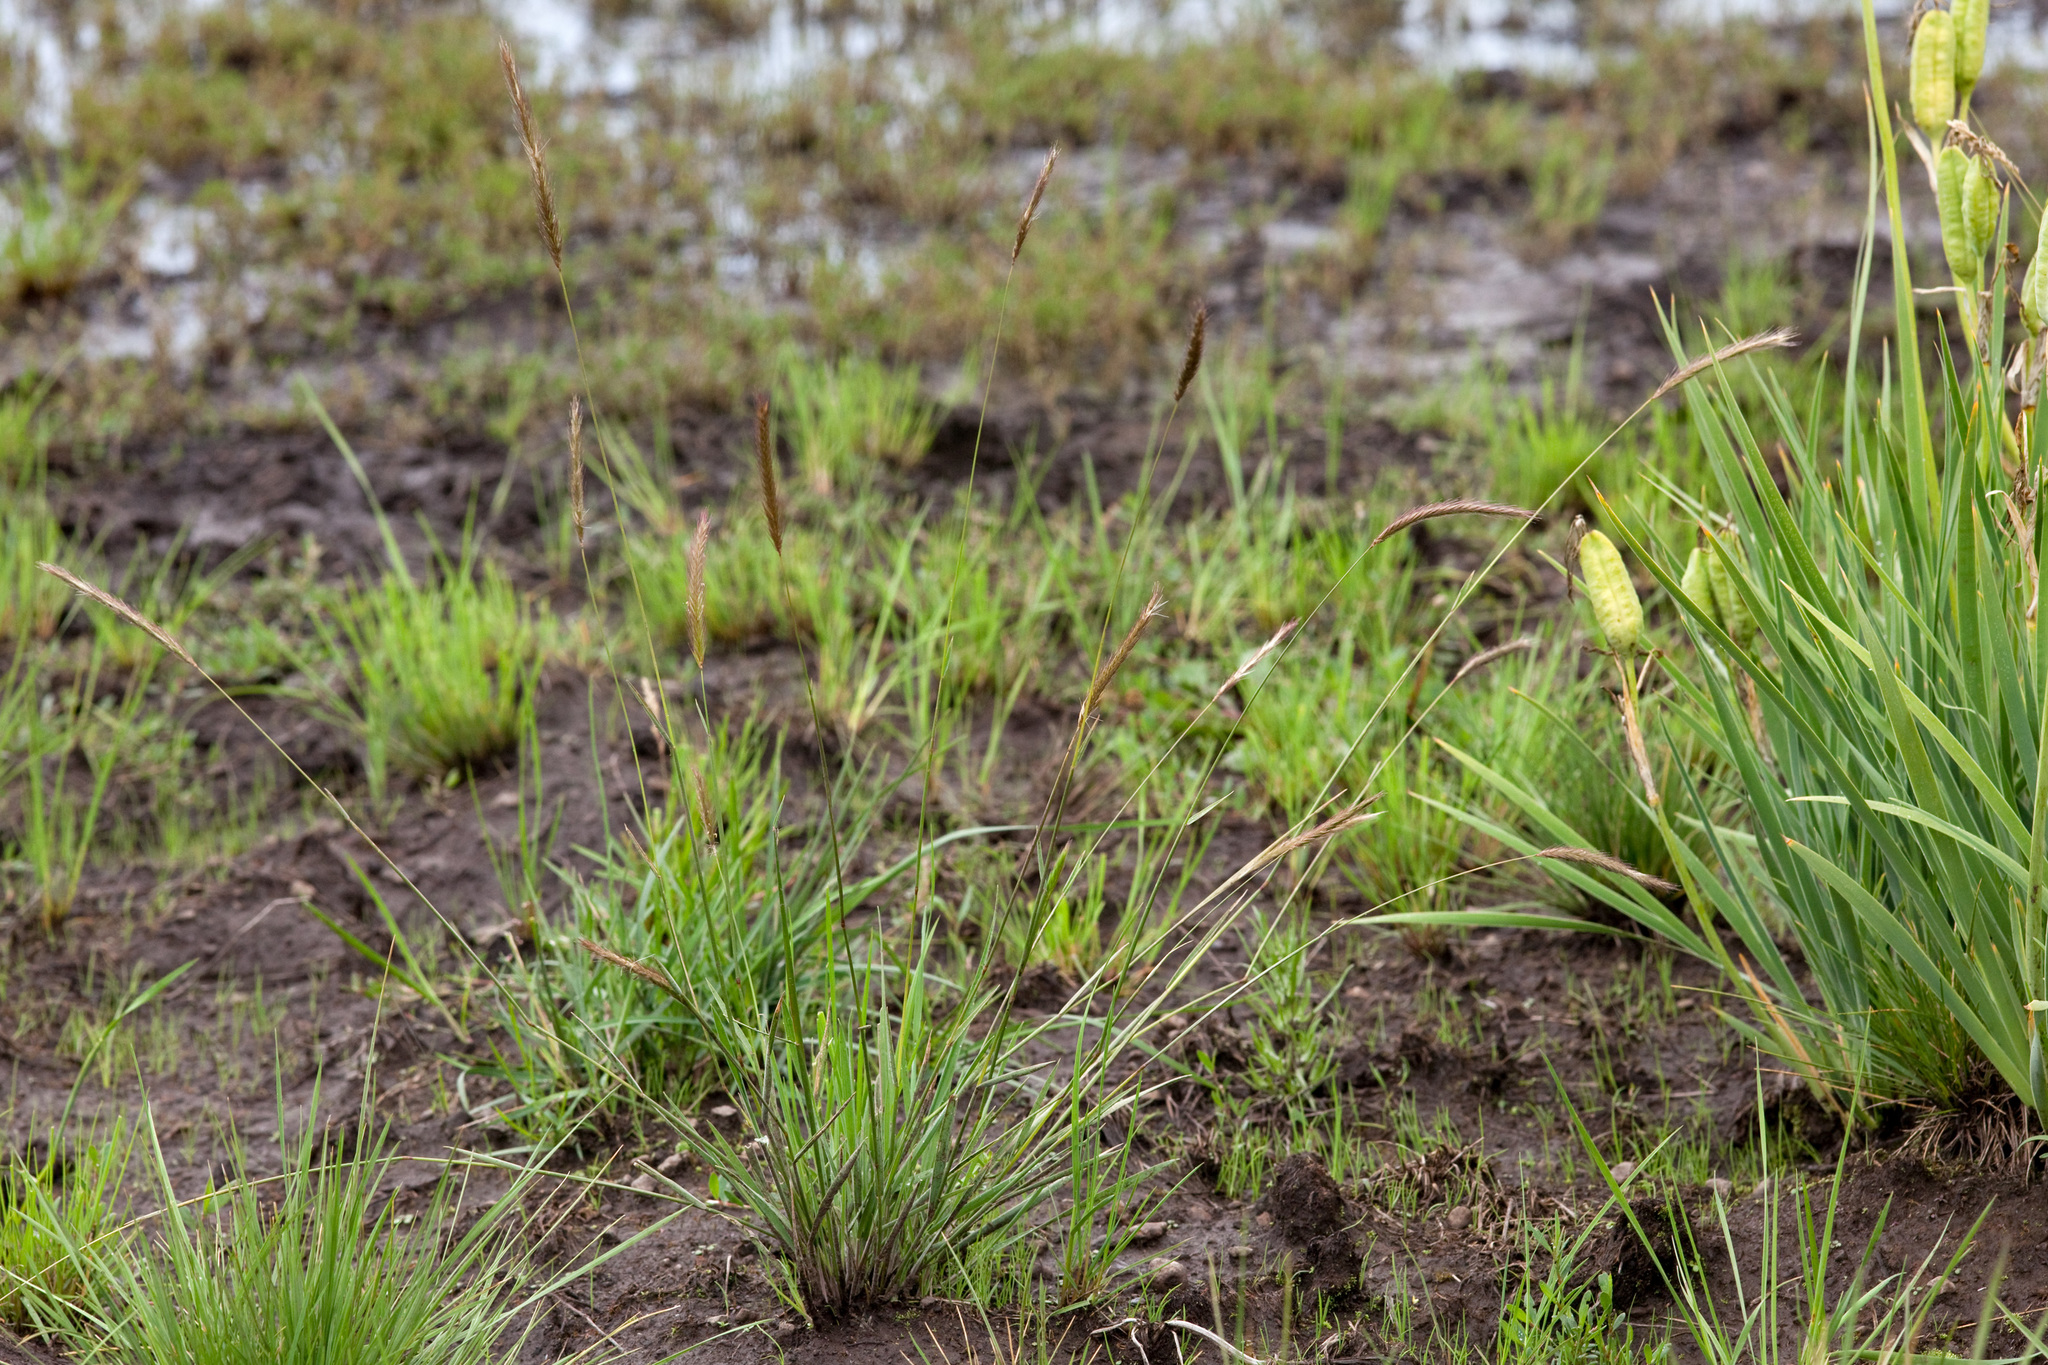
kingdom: Plantae
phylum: Tracheophyta
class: Liliopsida
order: Poales
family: Poaceae
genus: Elymus
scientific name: Elymus violaceus
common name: Arctic wheatgrass
